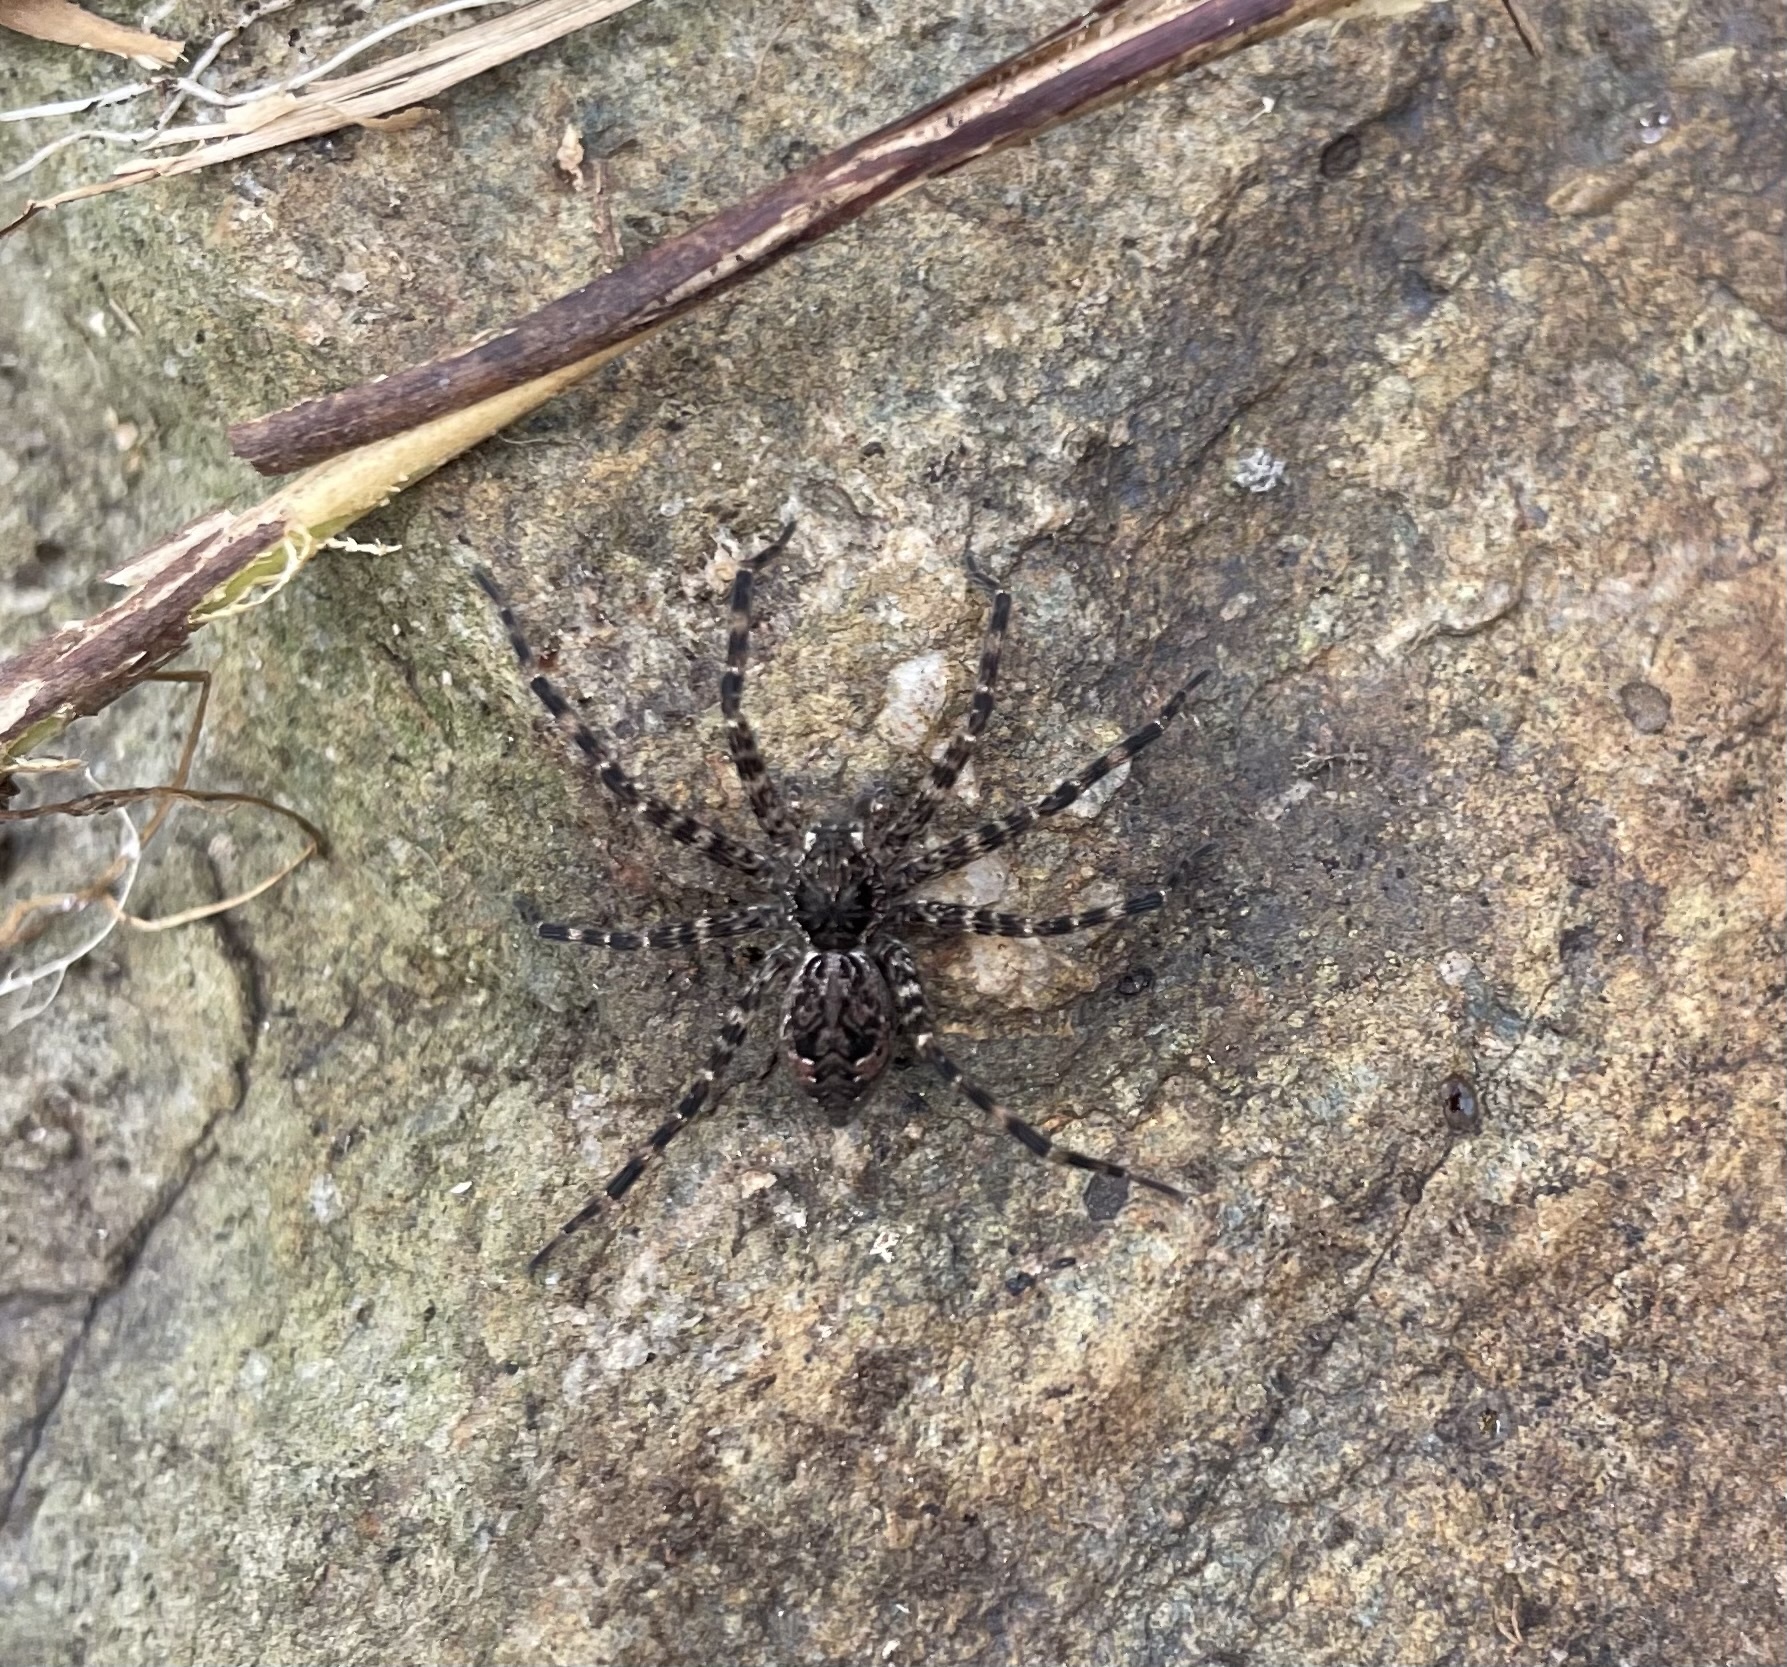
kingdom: Animalia
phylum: Arthropoda
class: Arachnida
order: Araneae
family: Pisauridae
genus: Dolomedes
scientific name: Dolomedes tenebrosus
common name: Dark fishing spider
